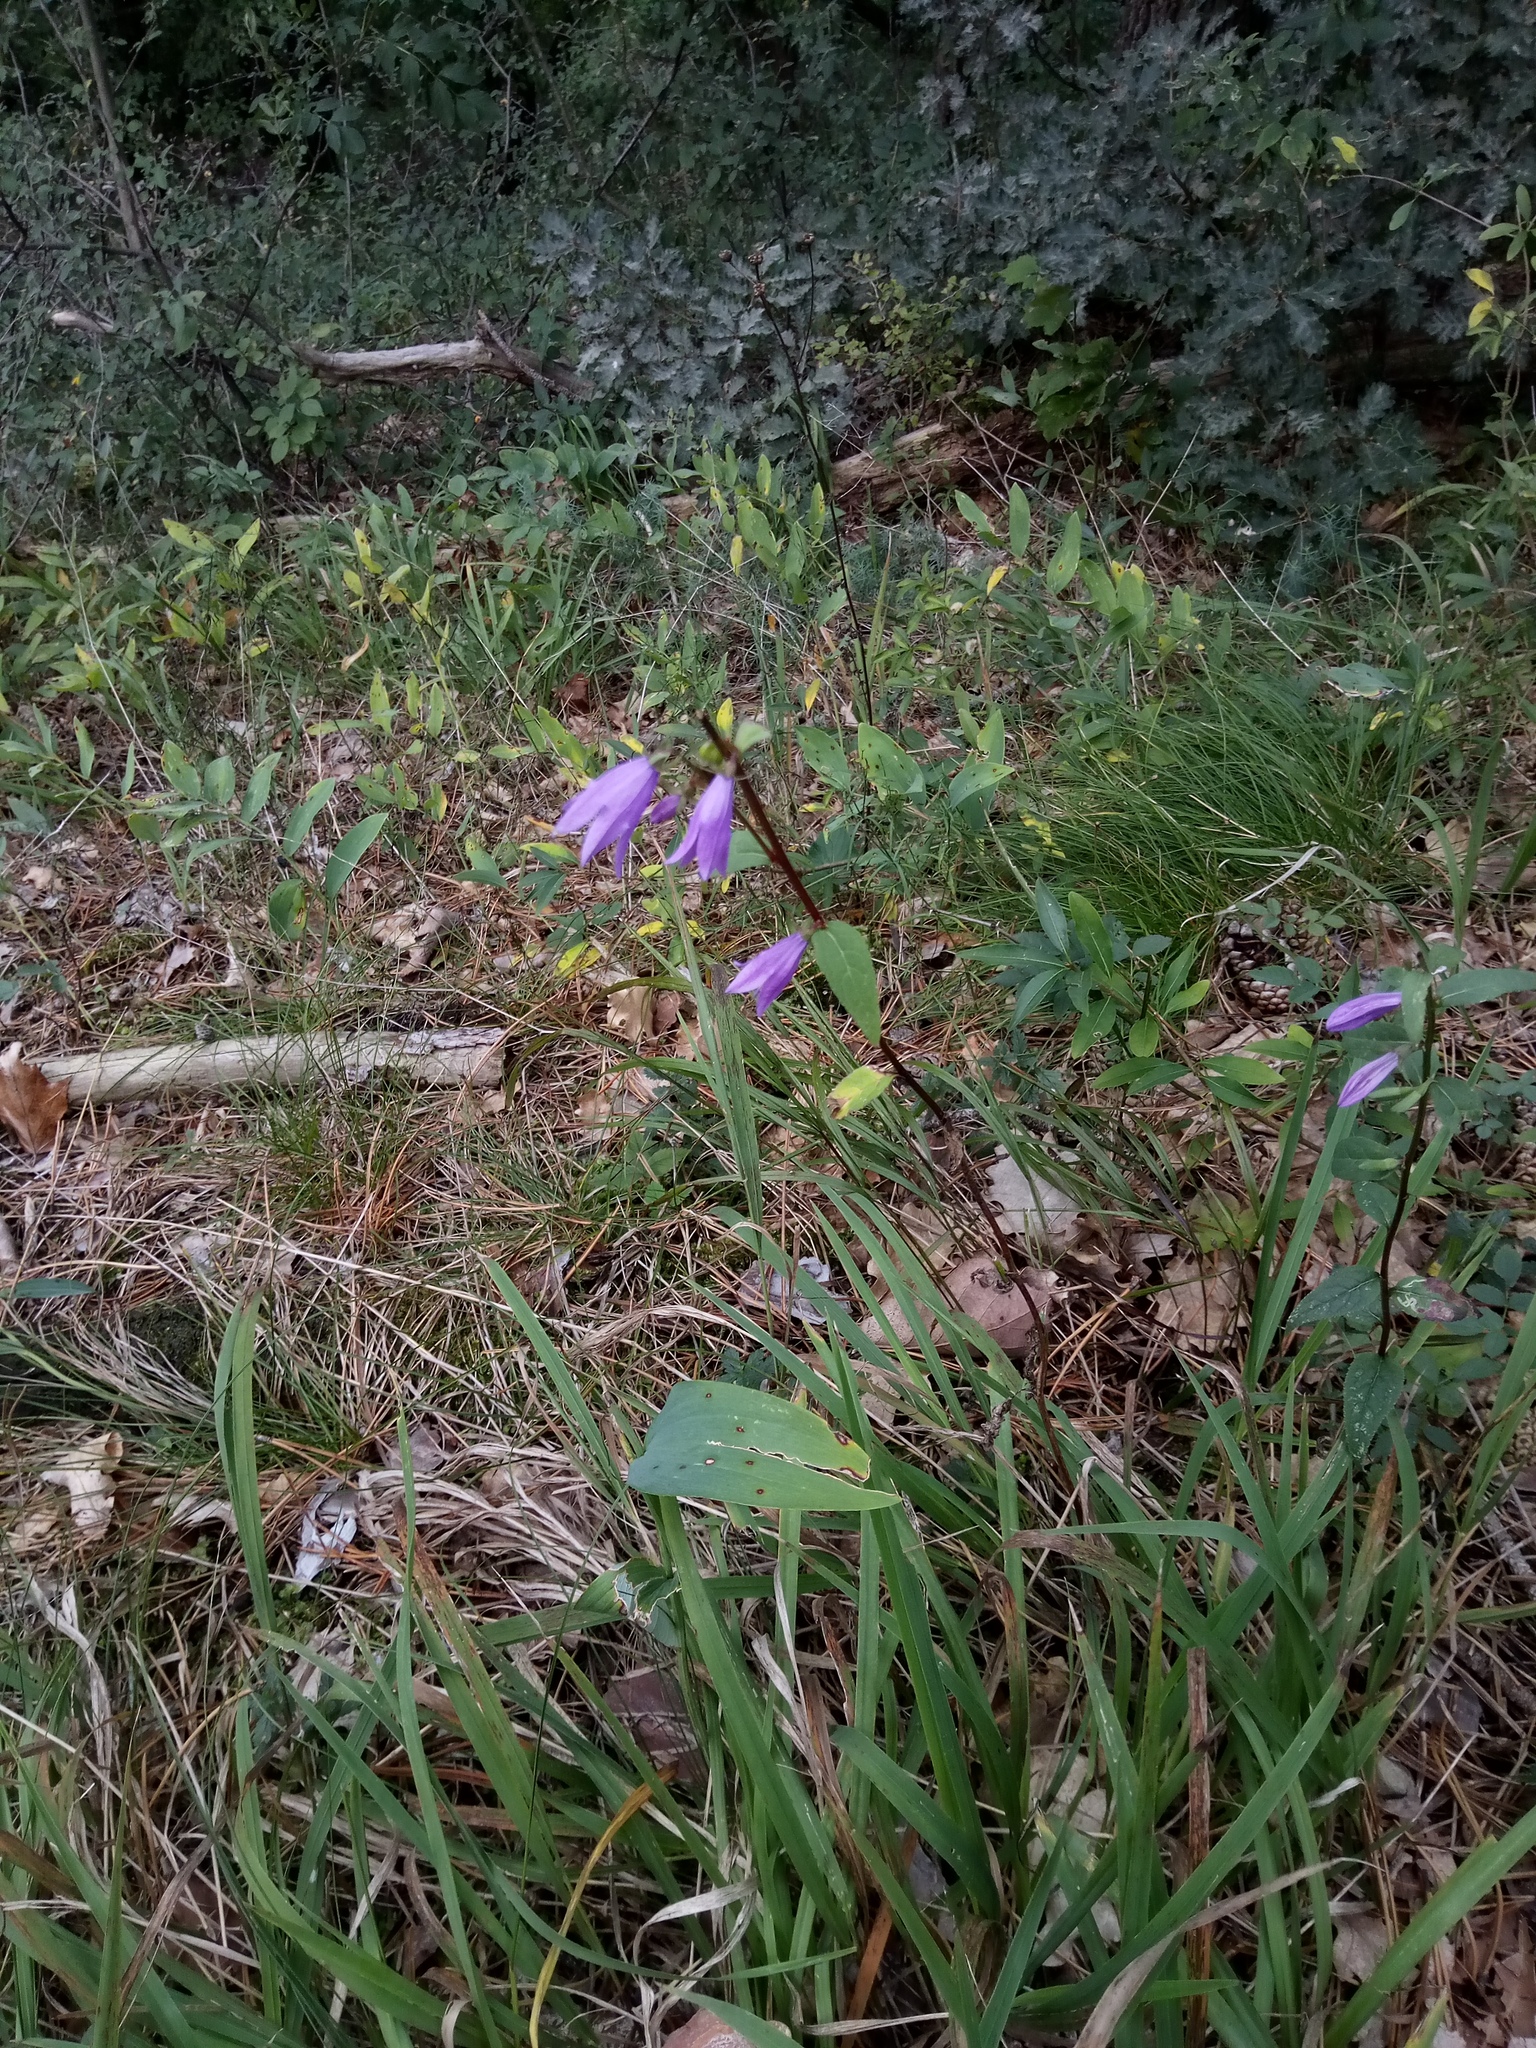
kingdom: Plantae
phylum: Tracheophyta
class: Magnoliopsida
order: Asterales
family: Campanulaceae
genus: Campanula
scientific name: Campanula rapunculoides
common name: Creeping bellflower
